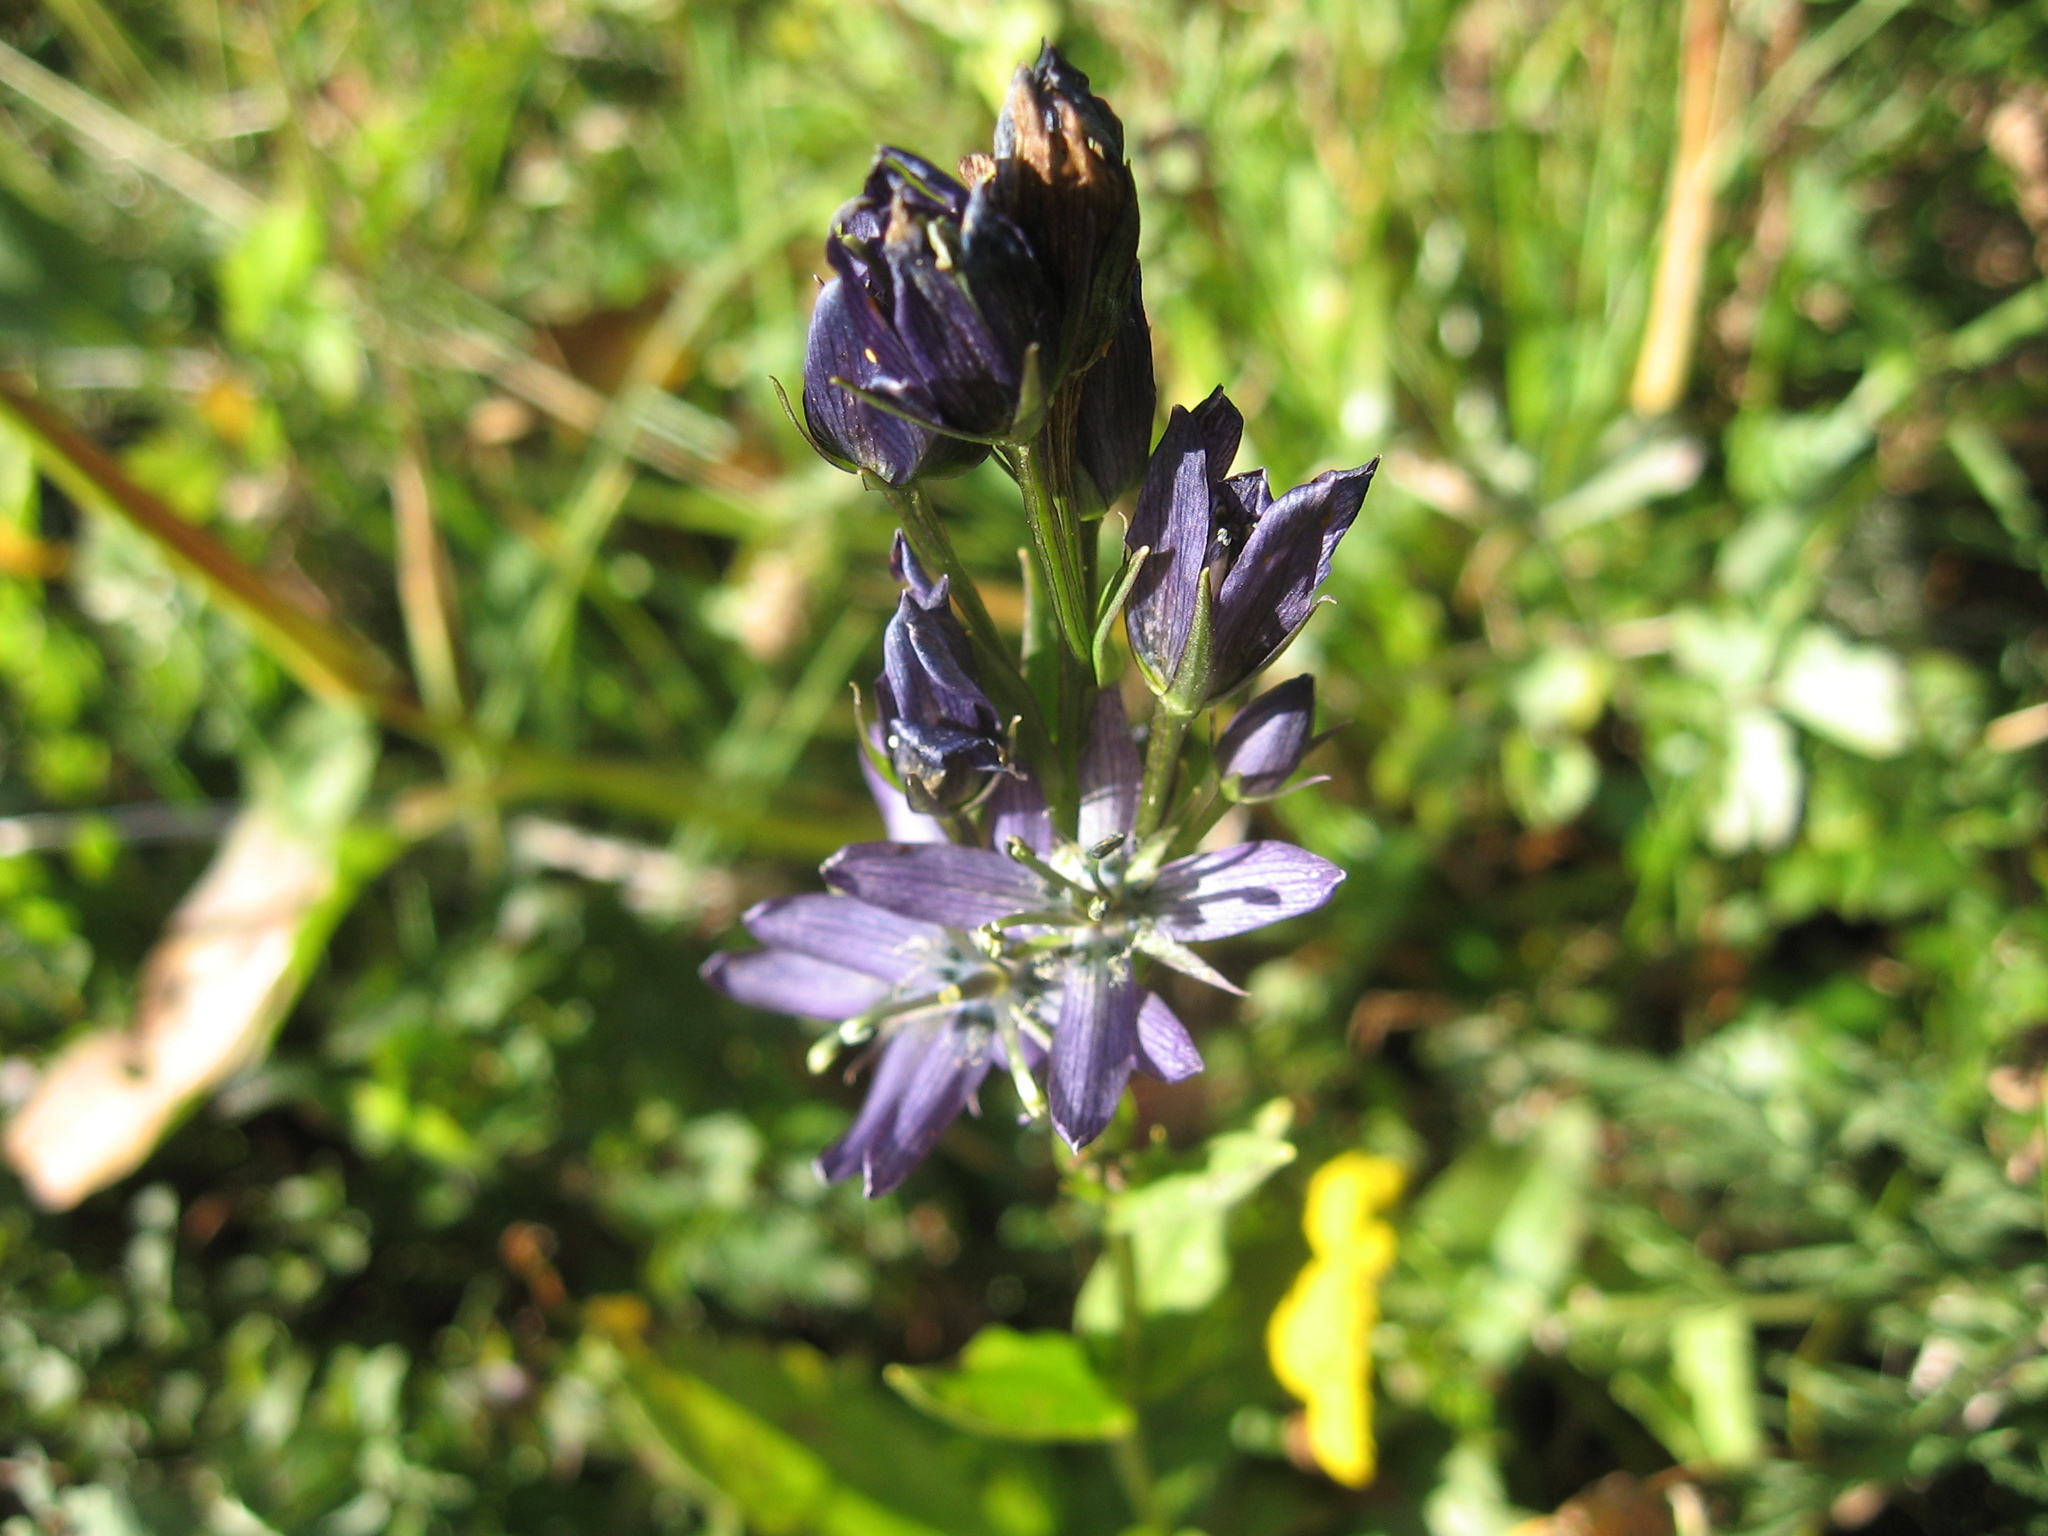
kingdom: Plantae
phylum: Tracheophyta
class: Magnoliopsida
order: Gentianales
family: Gentianaceae
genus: Swertia
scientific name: Swertia obtusa
